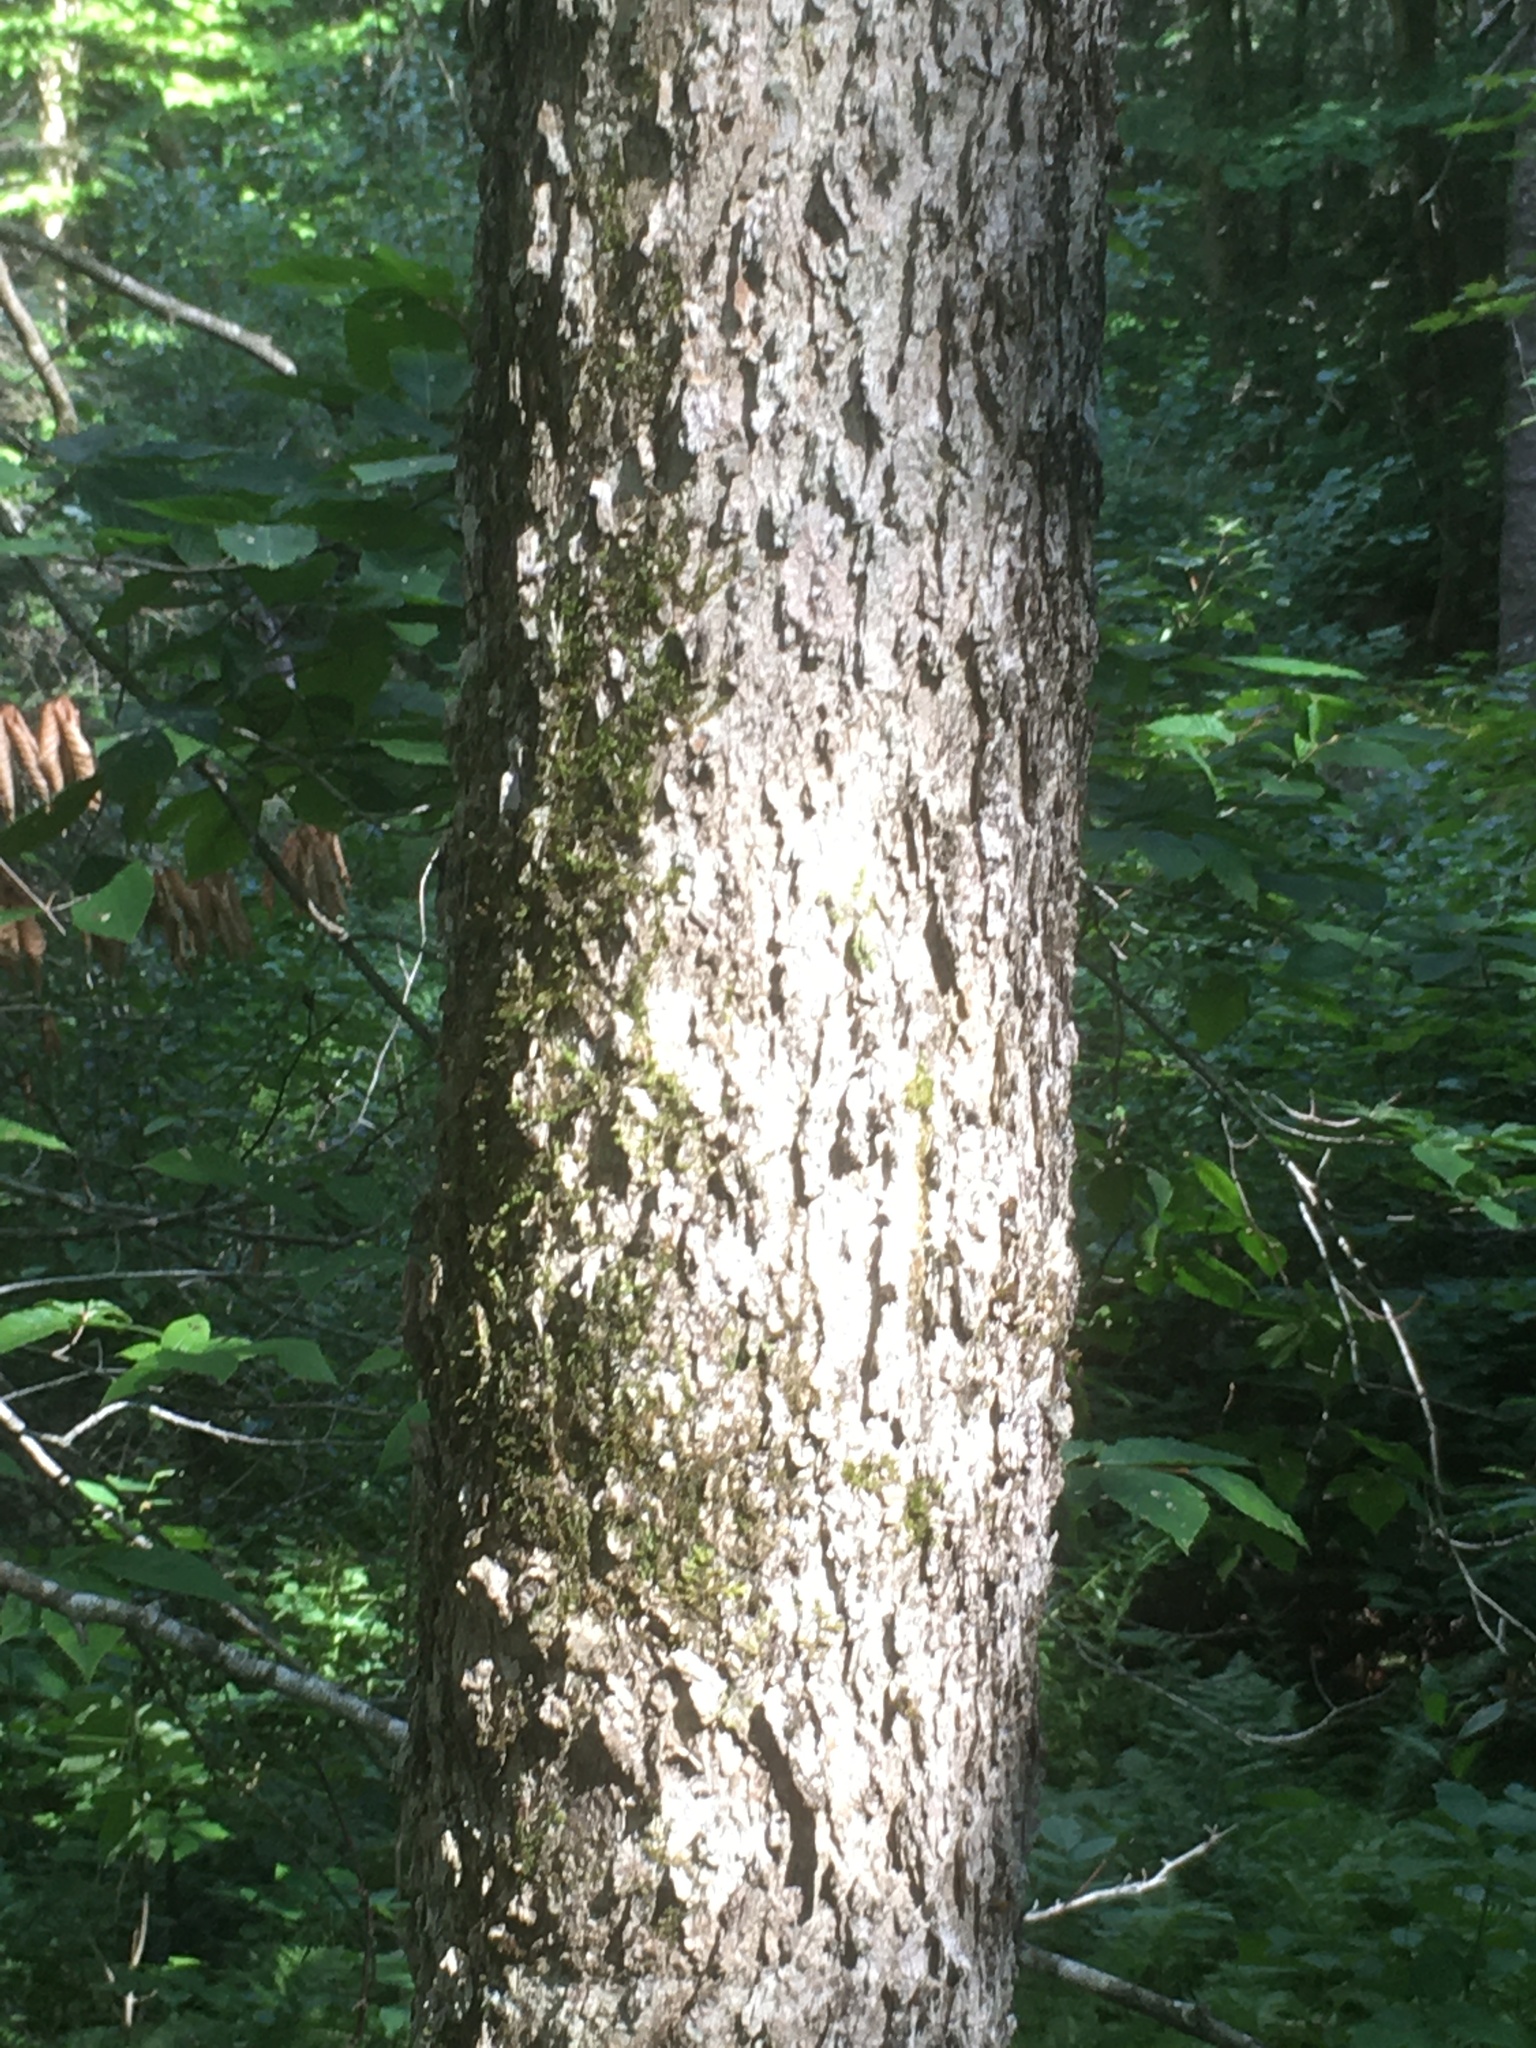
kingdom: Plantae
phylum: Tracheophyta
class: Magnoliopsida
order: Lamiales
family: Oleaceae
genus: Fraxinus
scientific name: Fraxinus nigra
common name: Black ash
